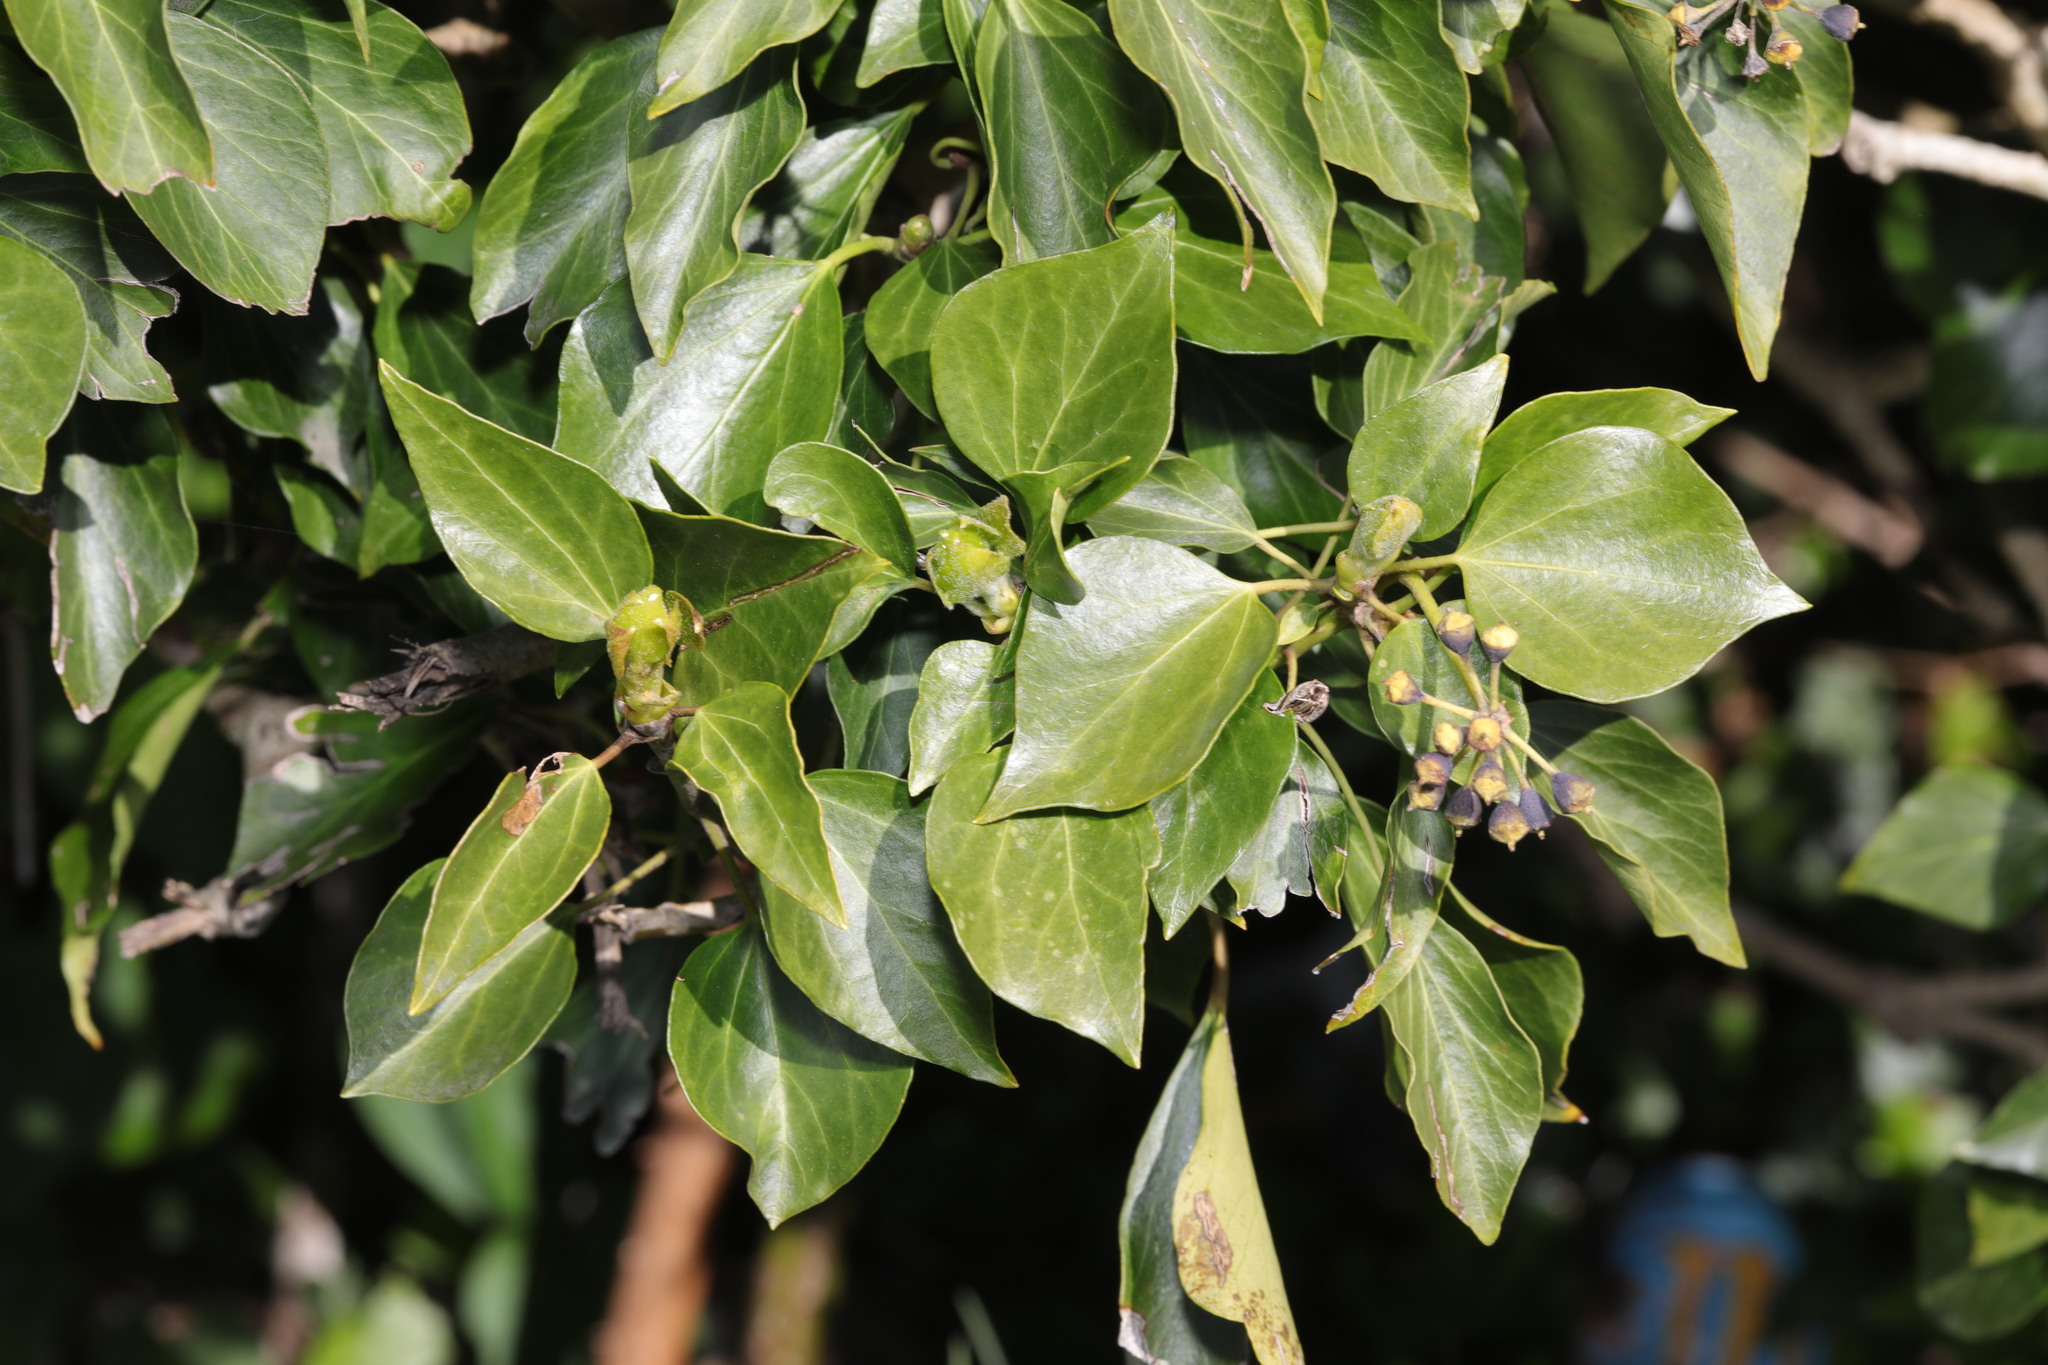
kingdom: Plantae
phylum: Tracheophyta
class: Magnoliopsida
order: Apiales
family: Araliaceae
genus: Hedera
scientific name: Hedera helix
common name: Ivy
